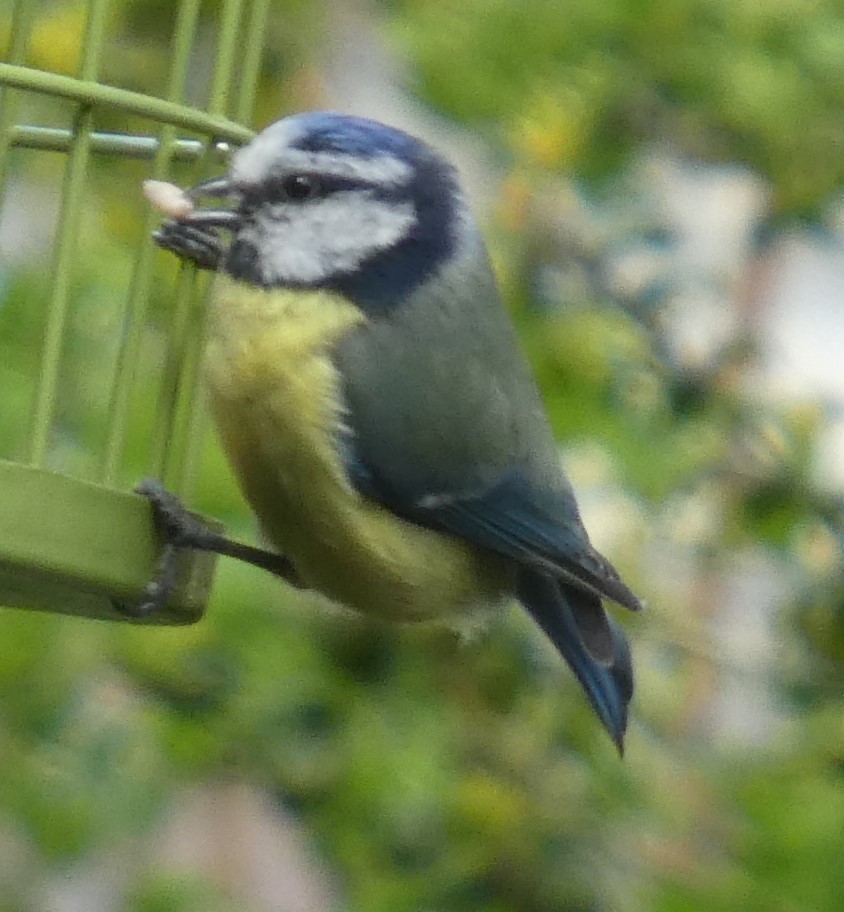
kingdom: Animalia
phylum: Chordata
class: Aves
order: Passeriformes
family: Paridae
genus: Cyanistes
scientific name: Cyanistes caeruleus
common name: Eurasian blue tit
